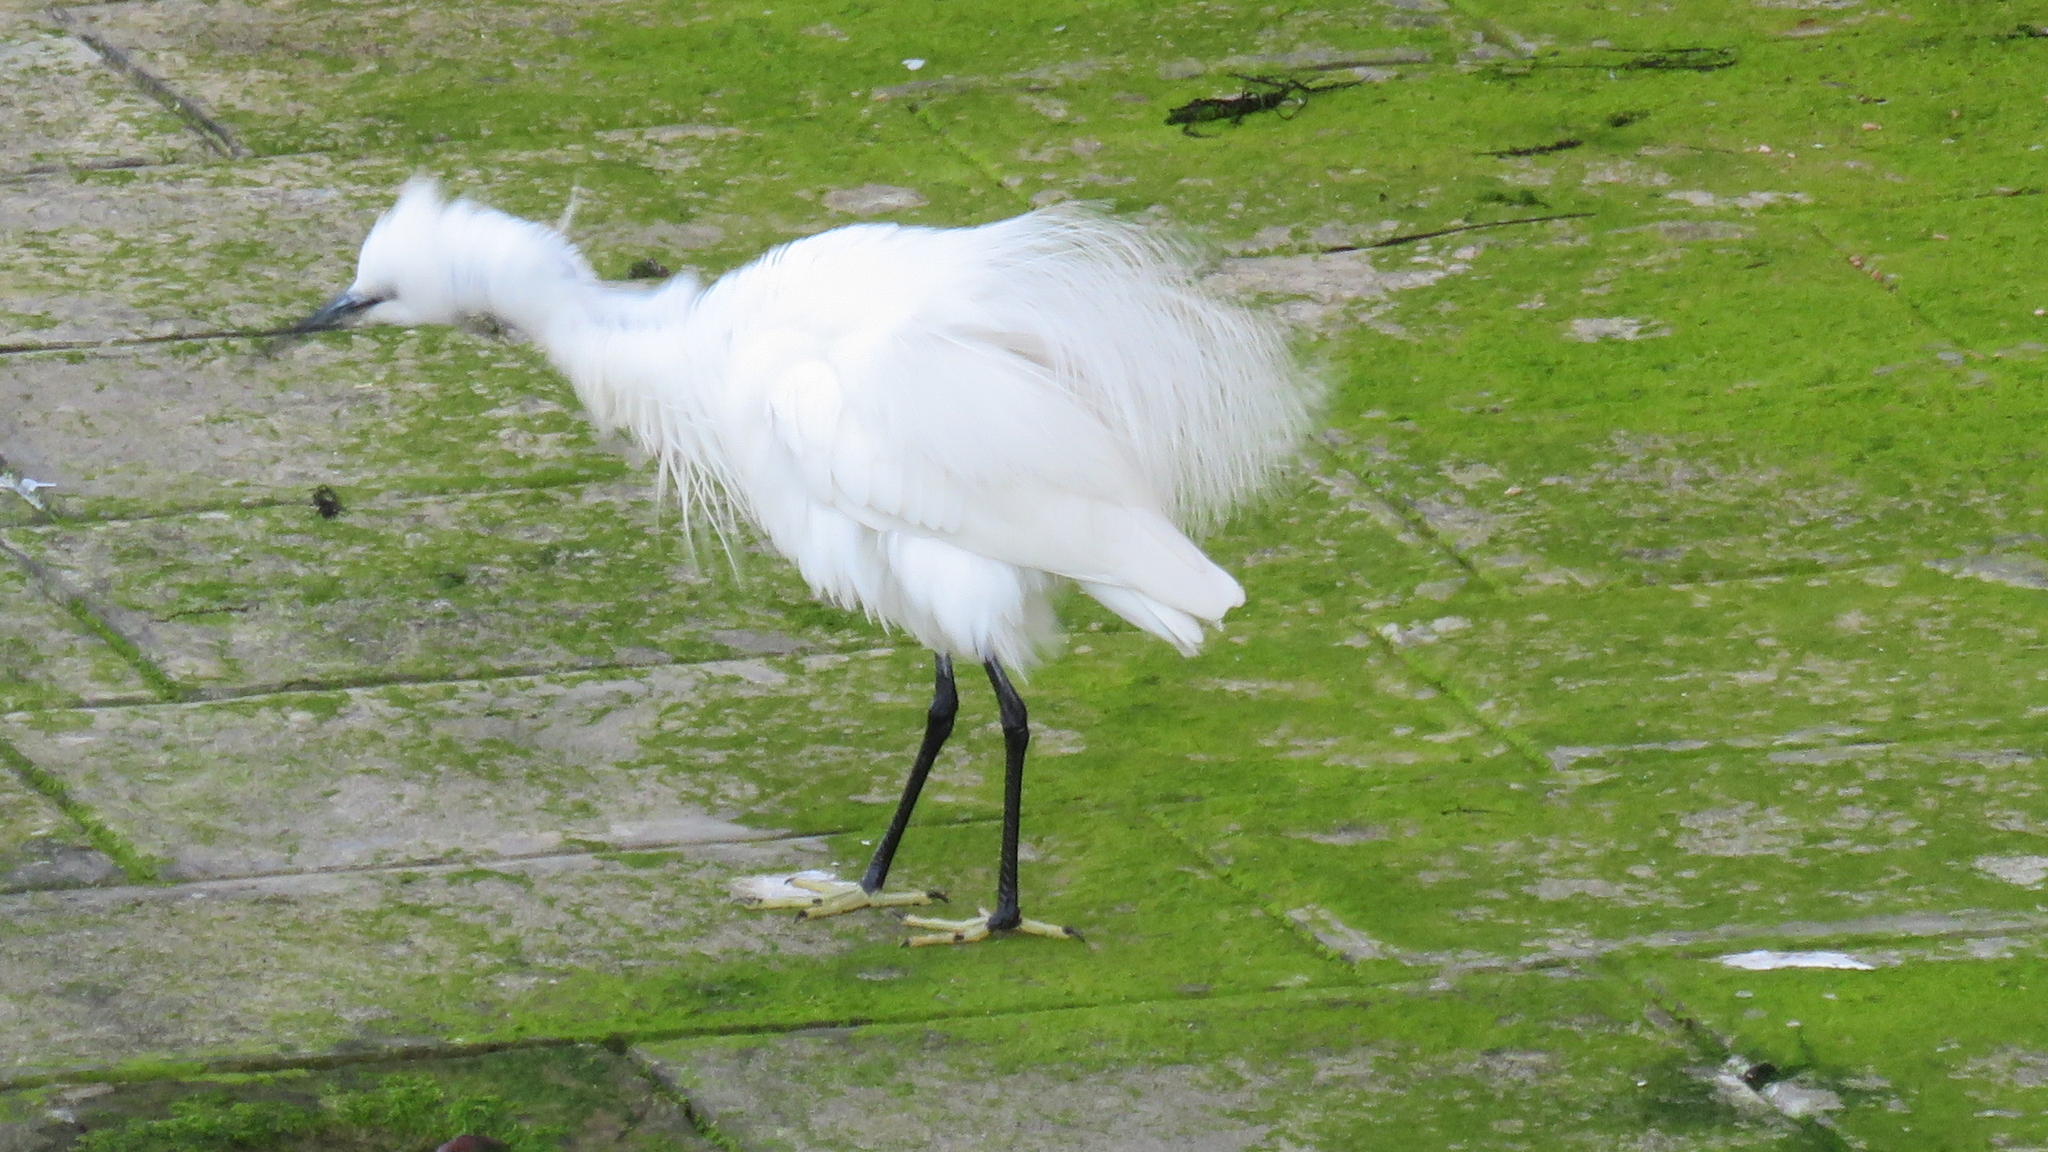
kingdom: Animalia
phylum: Chordata
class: Aves
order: Pelecaniformes
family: Ardeidae
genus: Egretta
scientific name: Egretta garzetta
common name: Little egret
